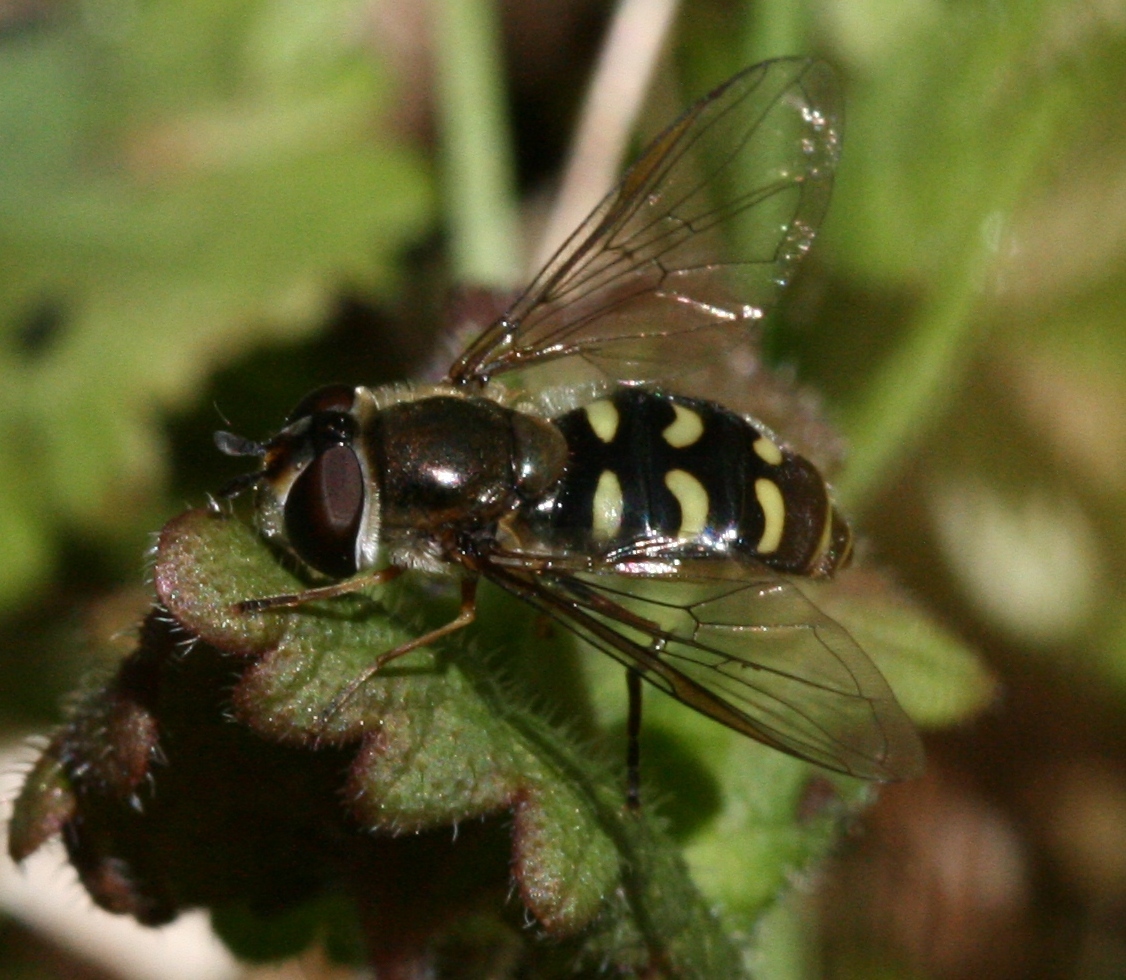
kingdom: Animalia
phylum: Arthropoda
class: Insecta
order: Diptera
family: Syrphidae
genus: Eupeodes
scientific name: Eupeodes luniger
